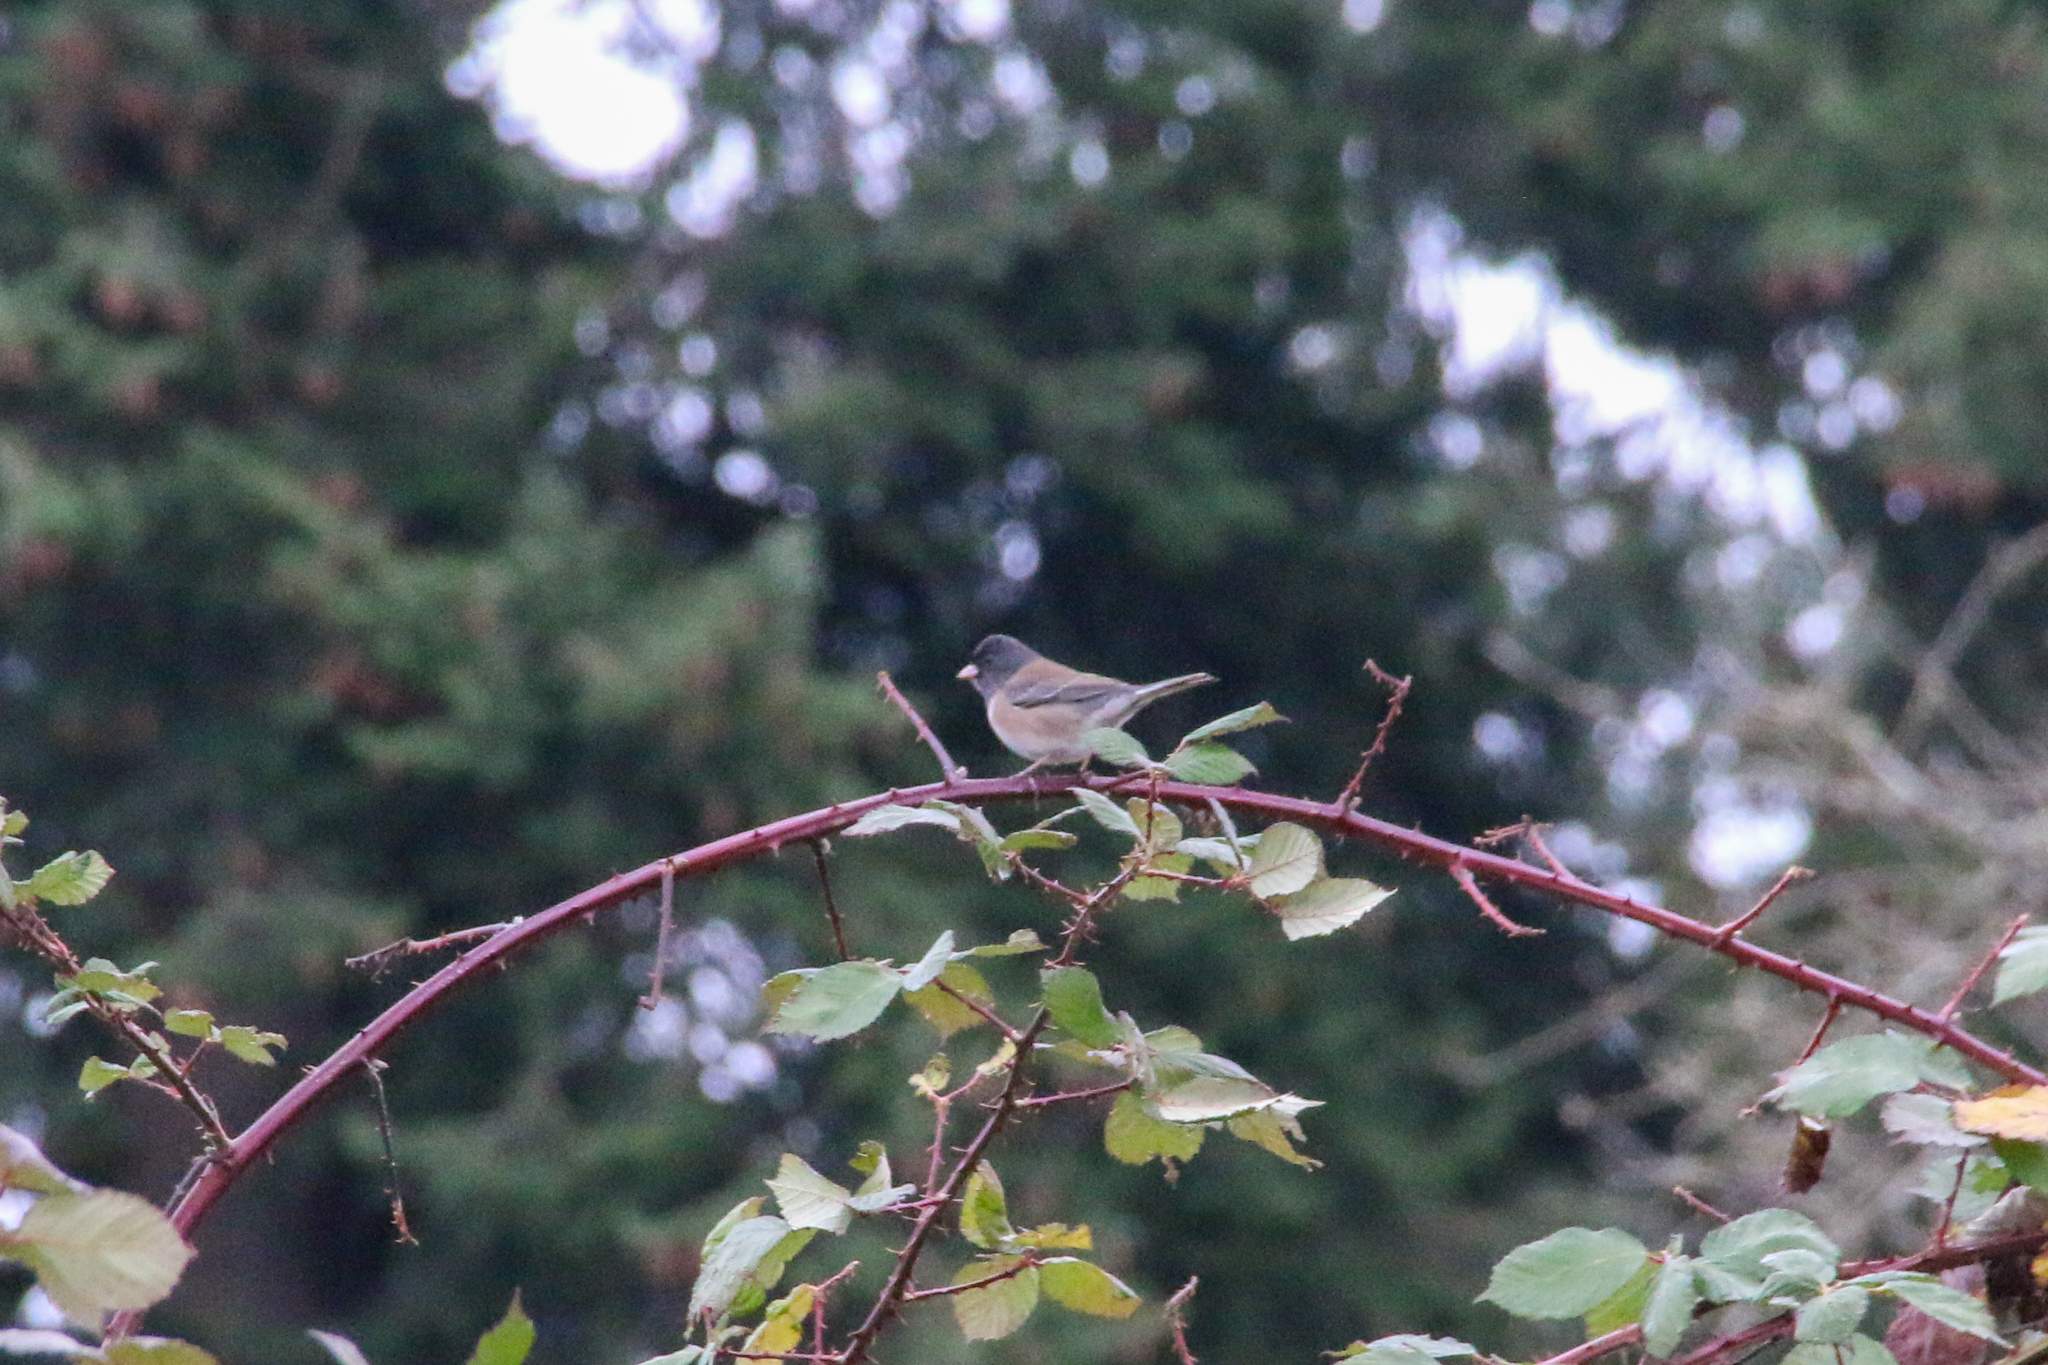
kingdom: Animalia
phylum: Chordata
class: Aves
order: Passeriformes
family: Passerellidae
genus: Junco
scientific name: Junco hyemalis
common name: Dark-eyed junco
